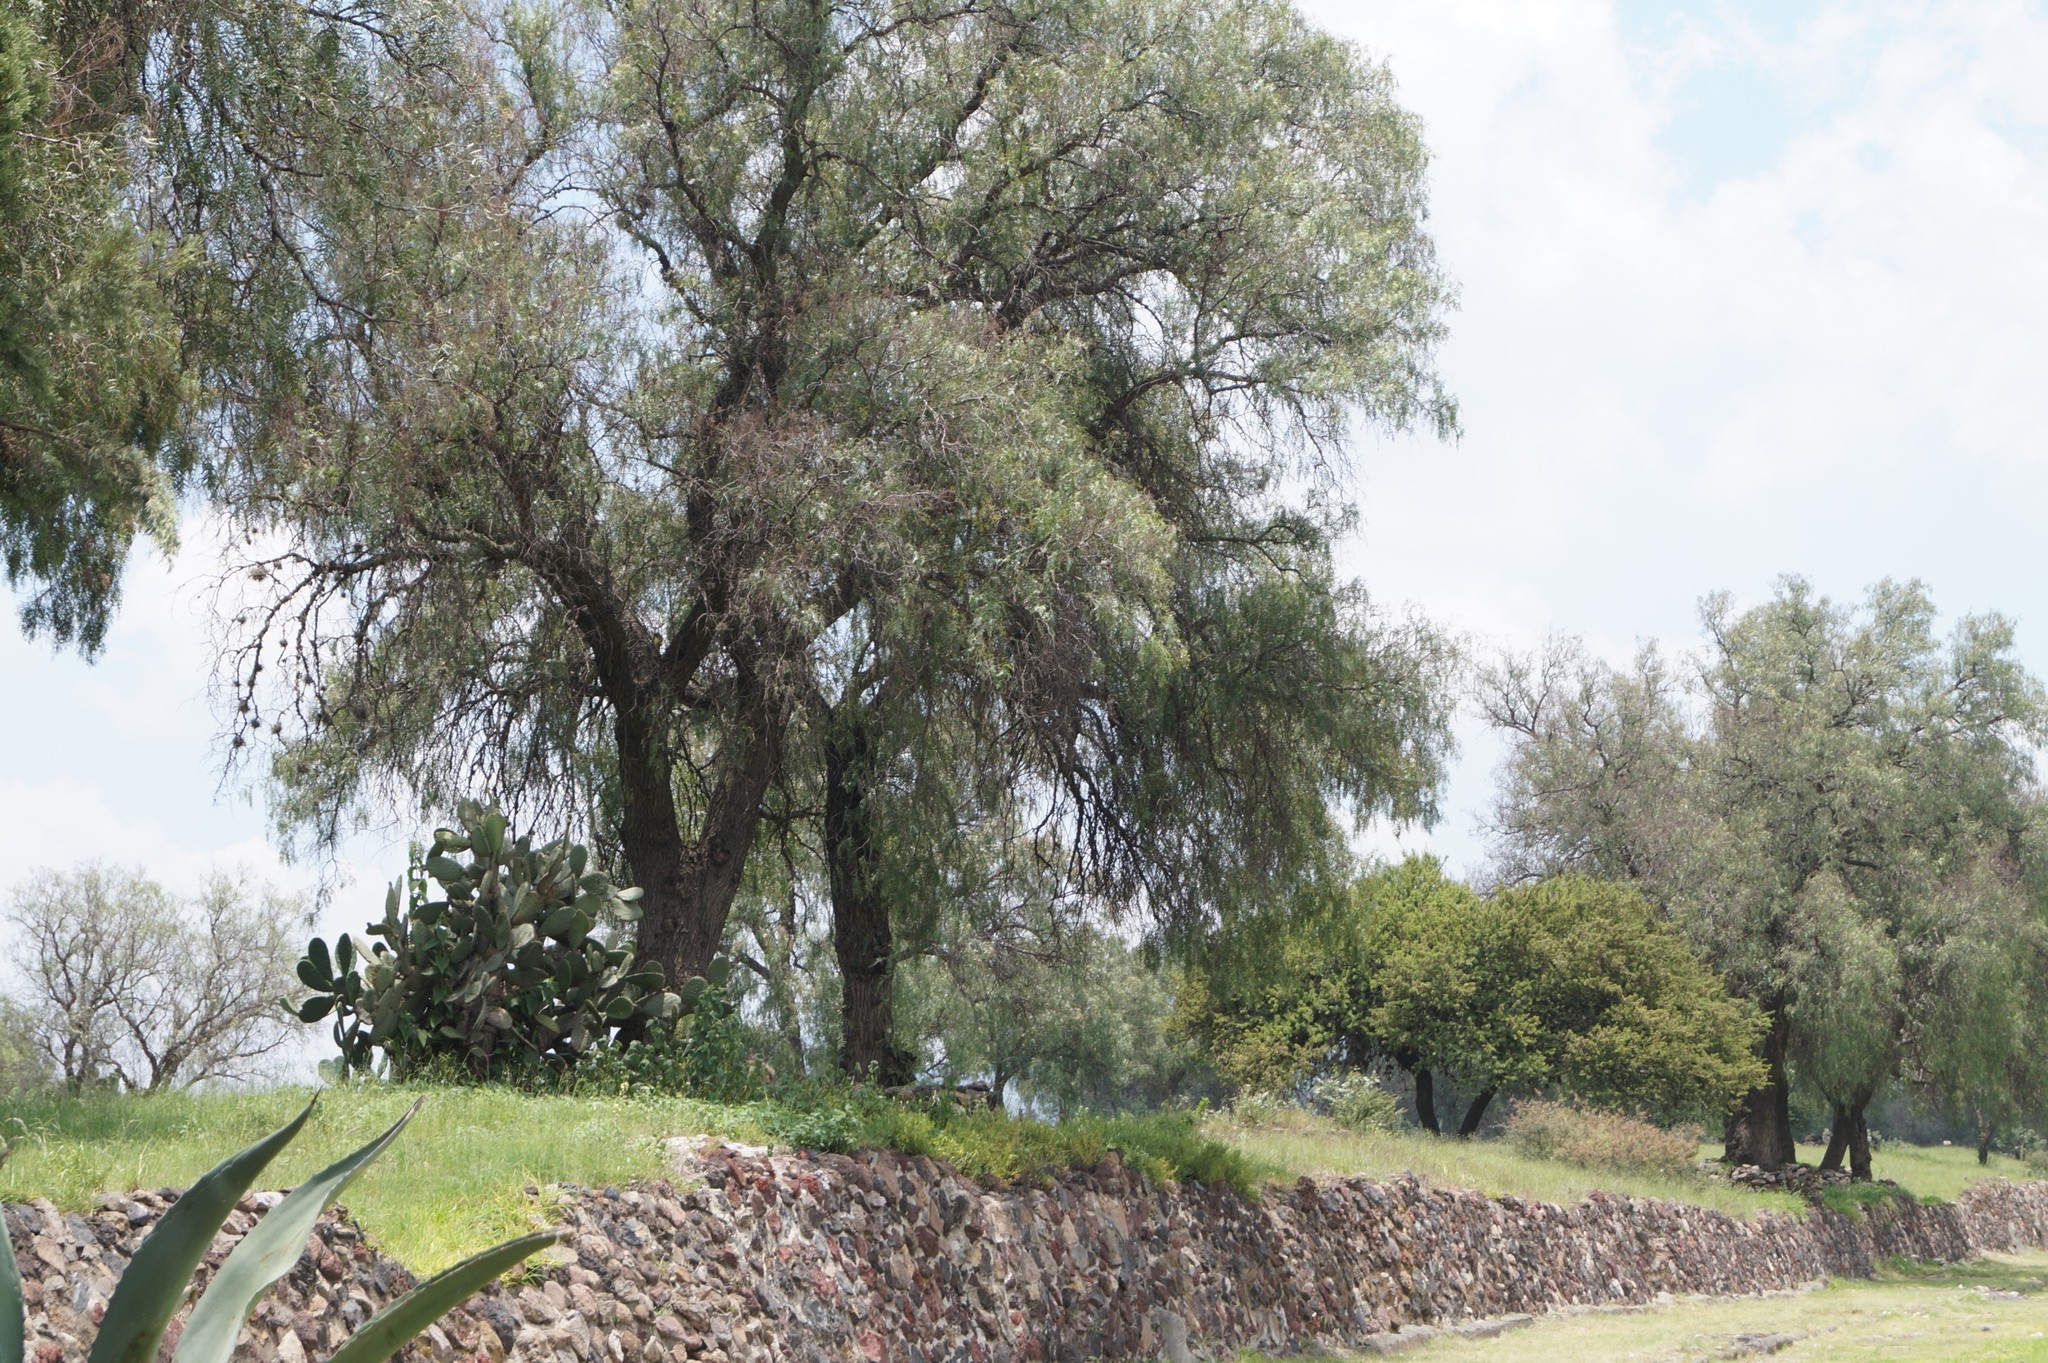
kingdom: Plantae
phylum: Tracheophyta
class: Magnoliopsida
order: Sapindales
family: Anacardiaceae
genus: Schinus
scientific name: Schinus molle
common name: Peruvian peppertree
